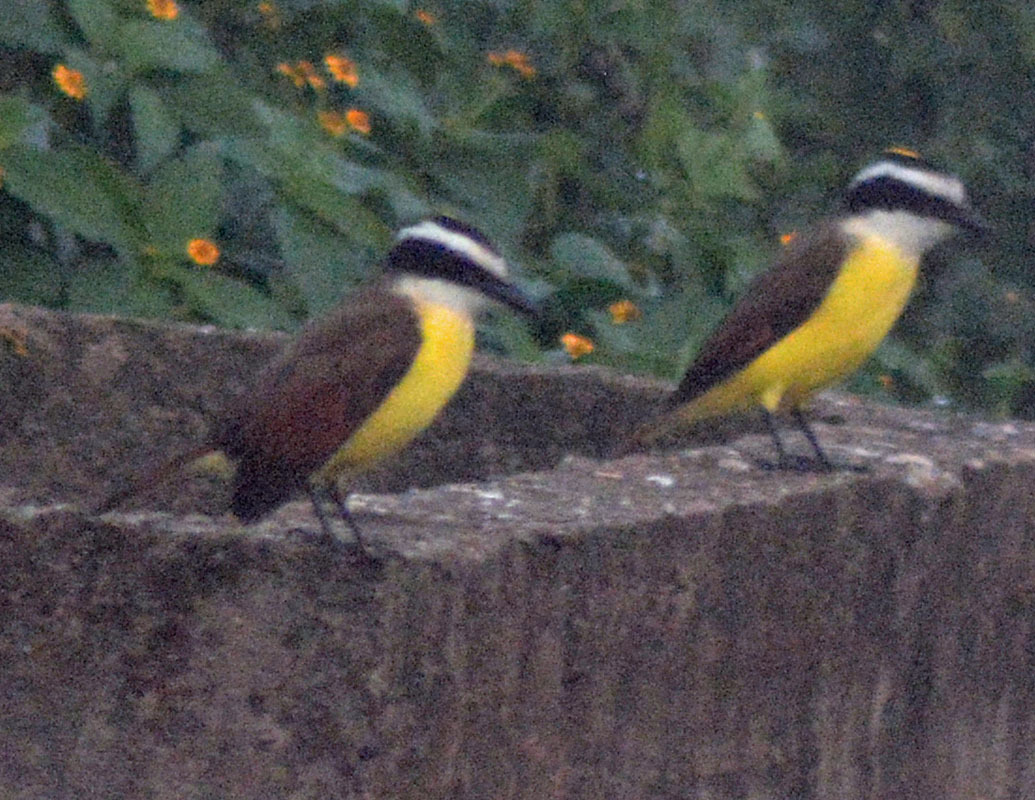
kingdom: Animalia
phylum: Chordata
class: Aves
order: Passeriformes
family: Tyrannidae
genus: Pitangus
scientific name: Pitangus sulphuratus
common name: Great kiskadee
